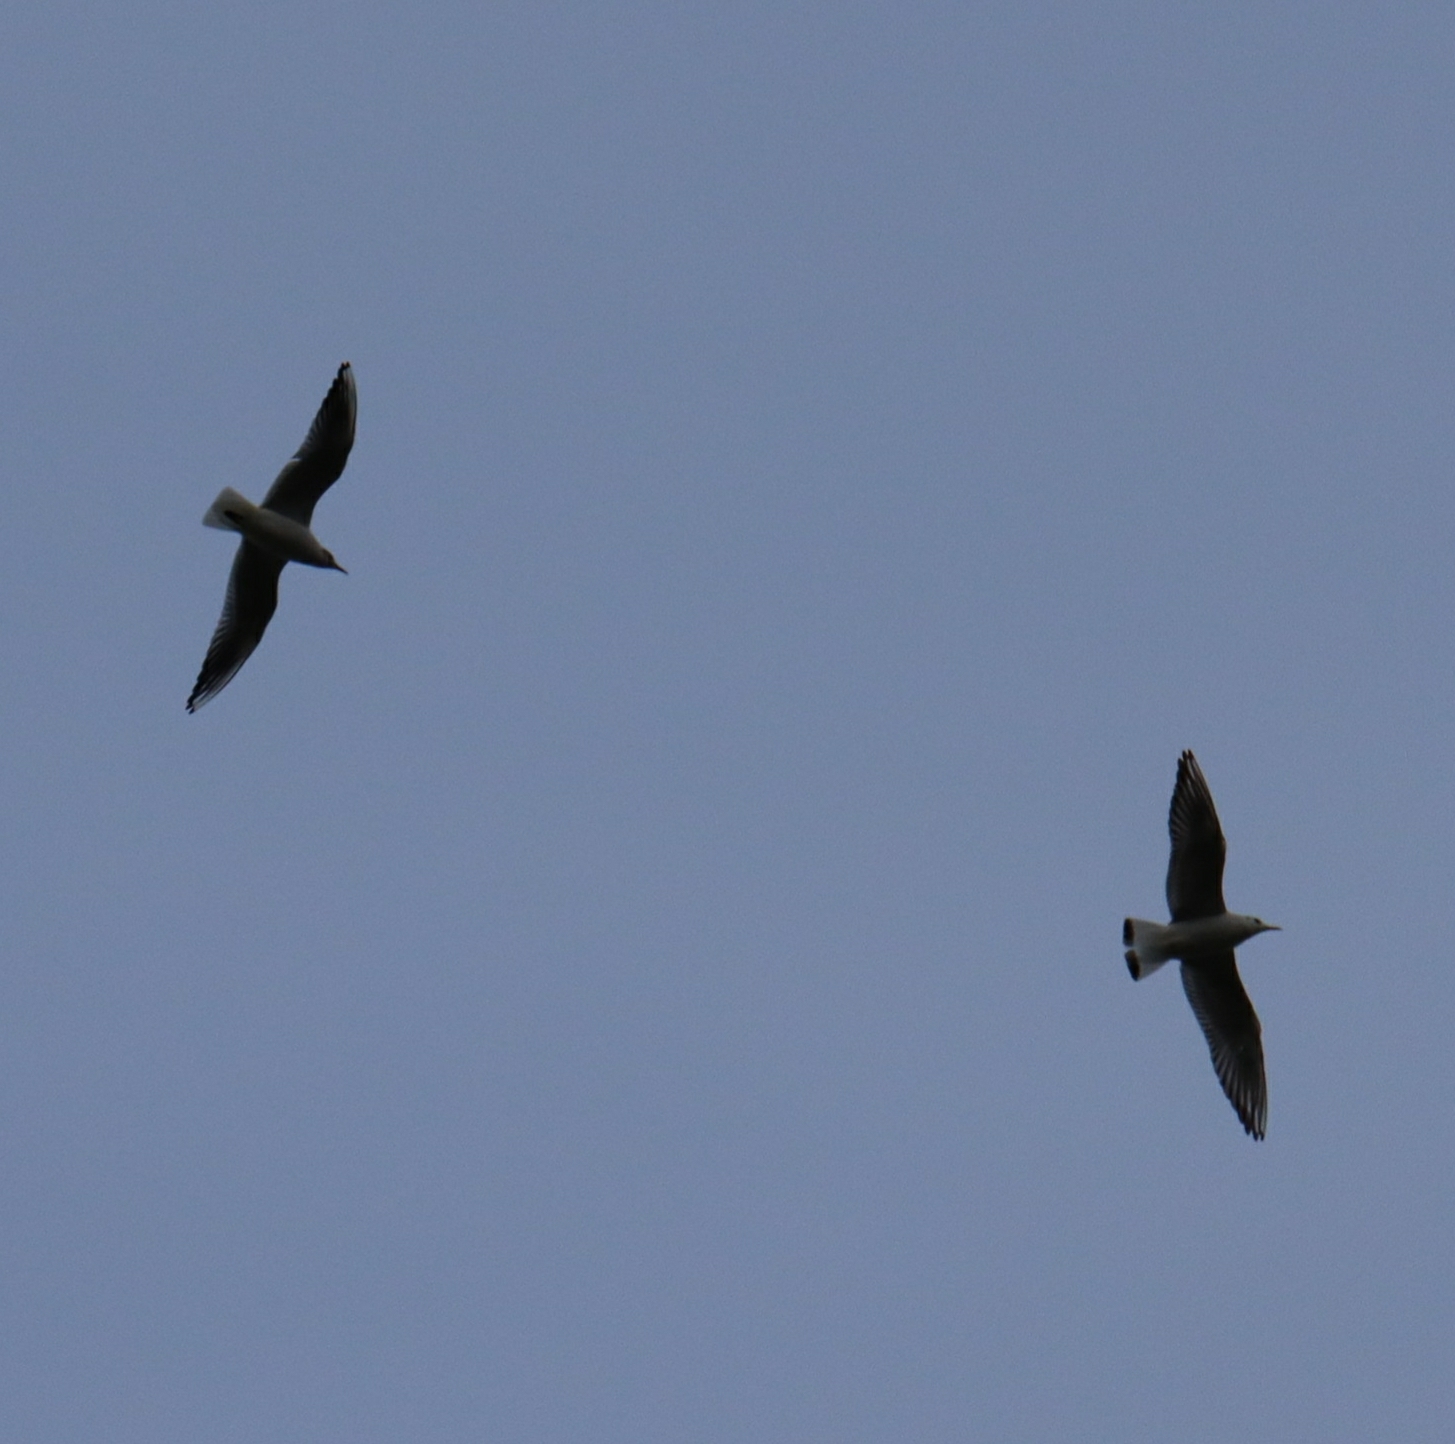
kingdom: Animalia
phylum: Chordata
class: Aves
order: Charadriiformes
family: Laridae
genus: Chroicocephalus
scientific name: Chroicocephalus ridibundus
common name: Black-headed gull
